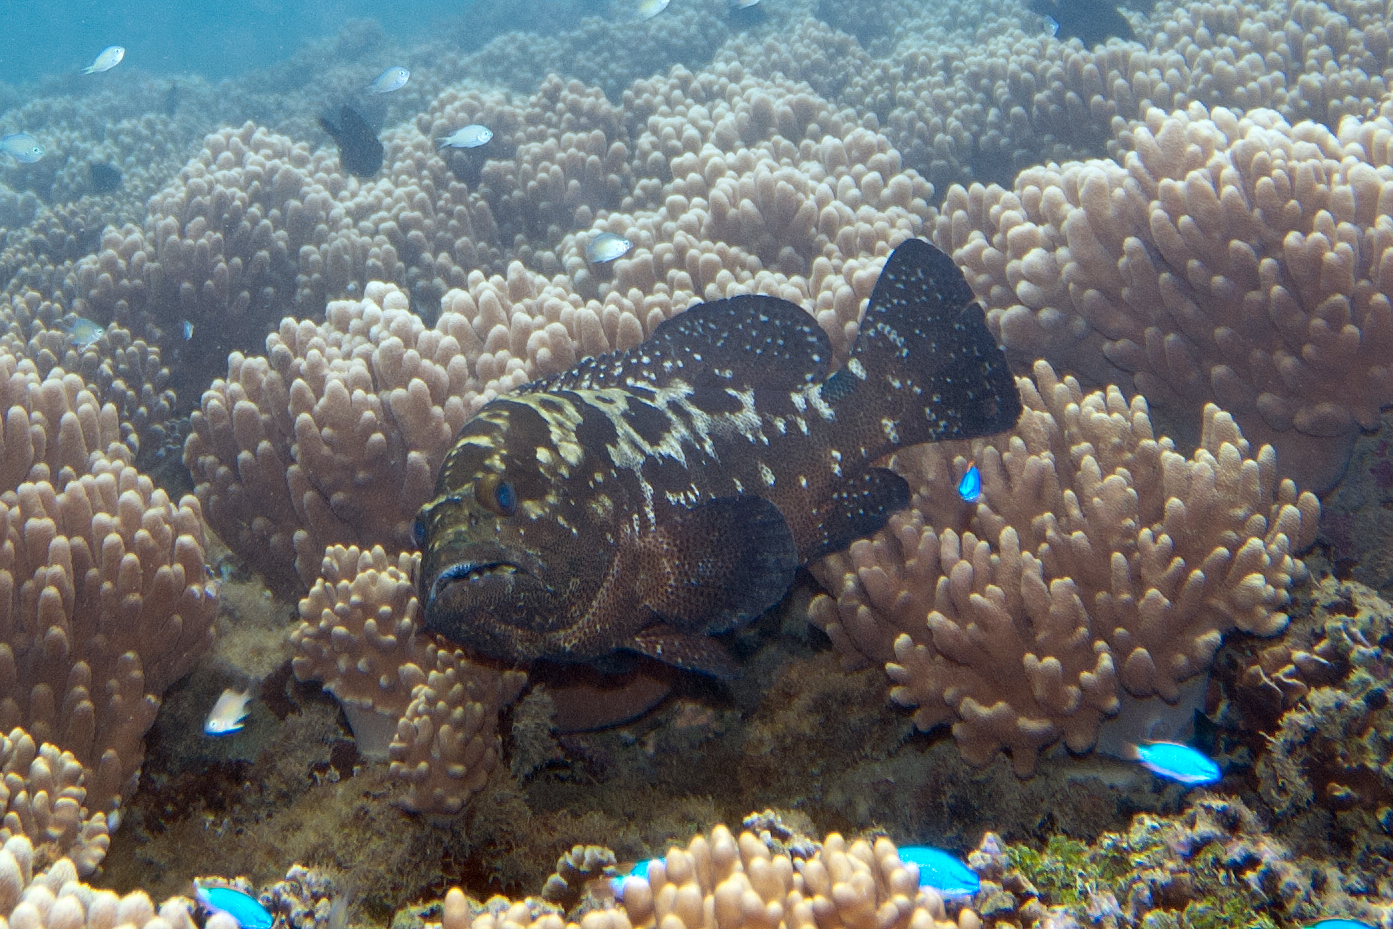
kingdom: Animalia
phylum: Chordata
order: Perciformes
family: Serranidae
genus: Epinephelus
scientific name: Epinephelus polyphekadion
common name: Camouflage grouper
